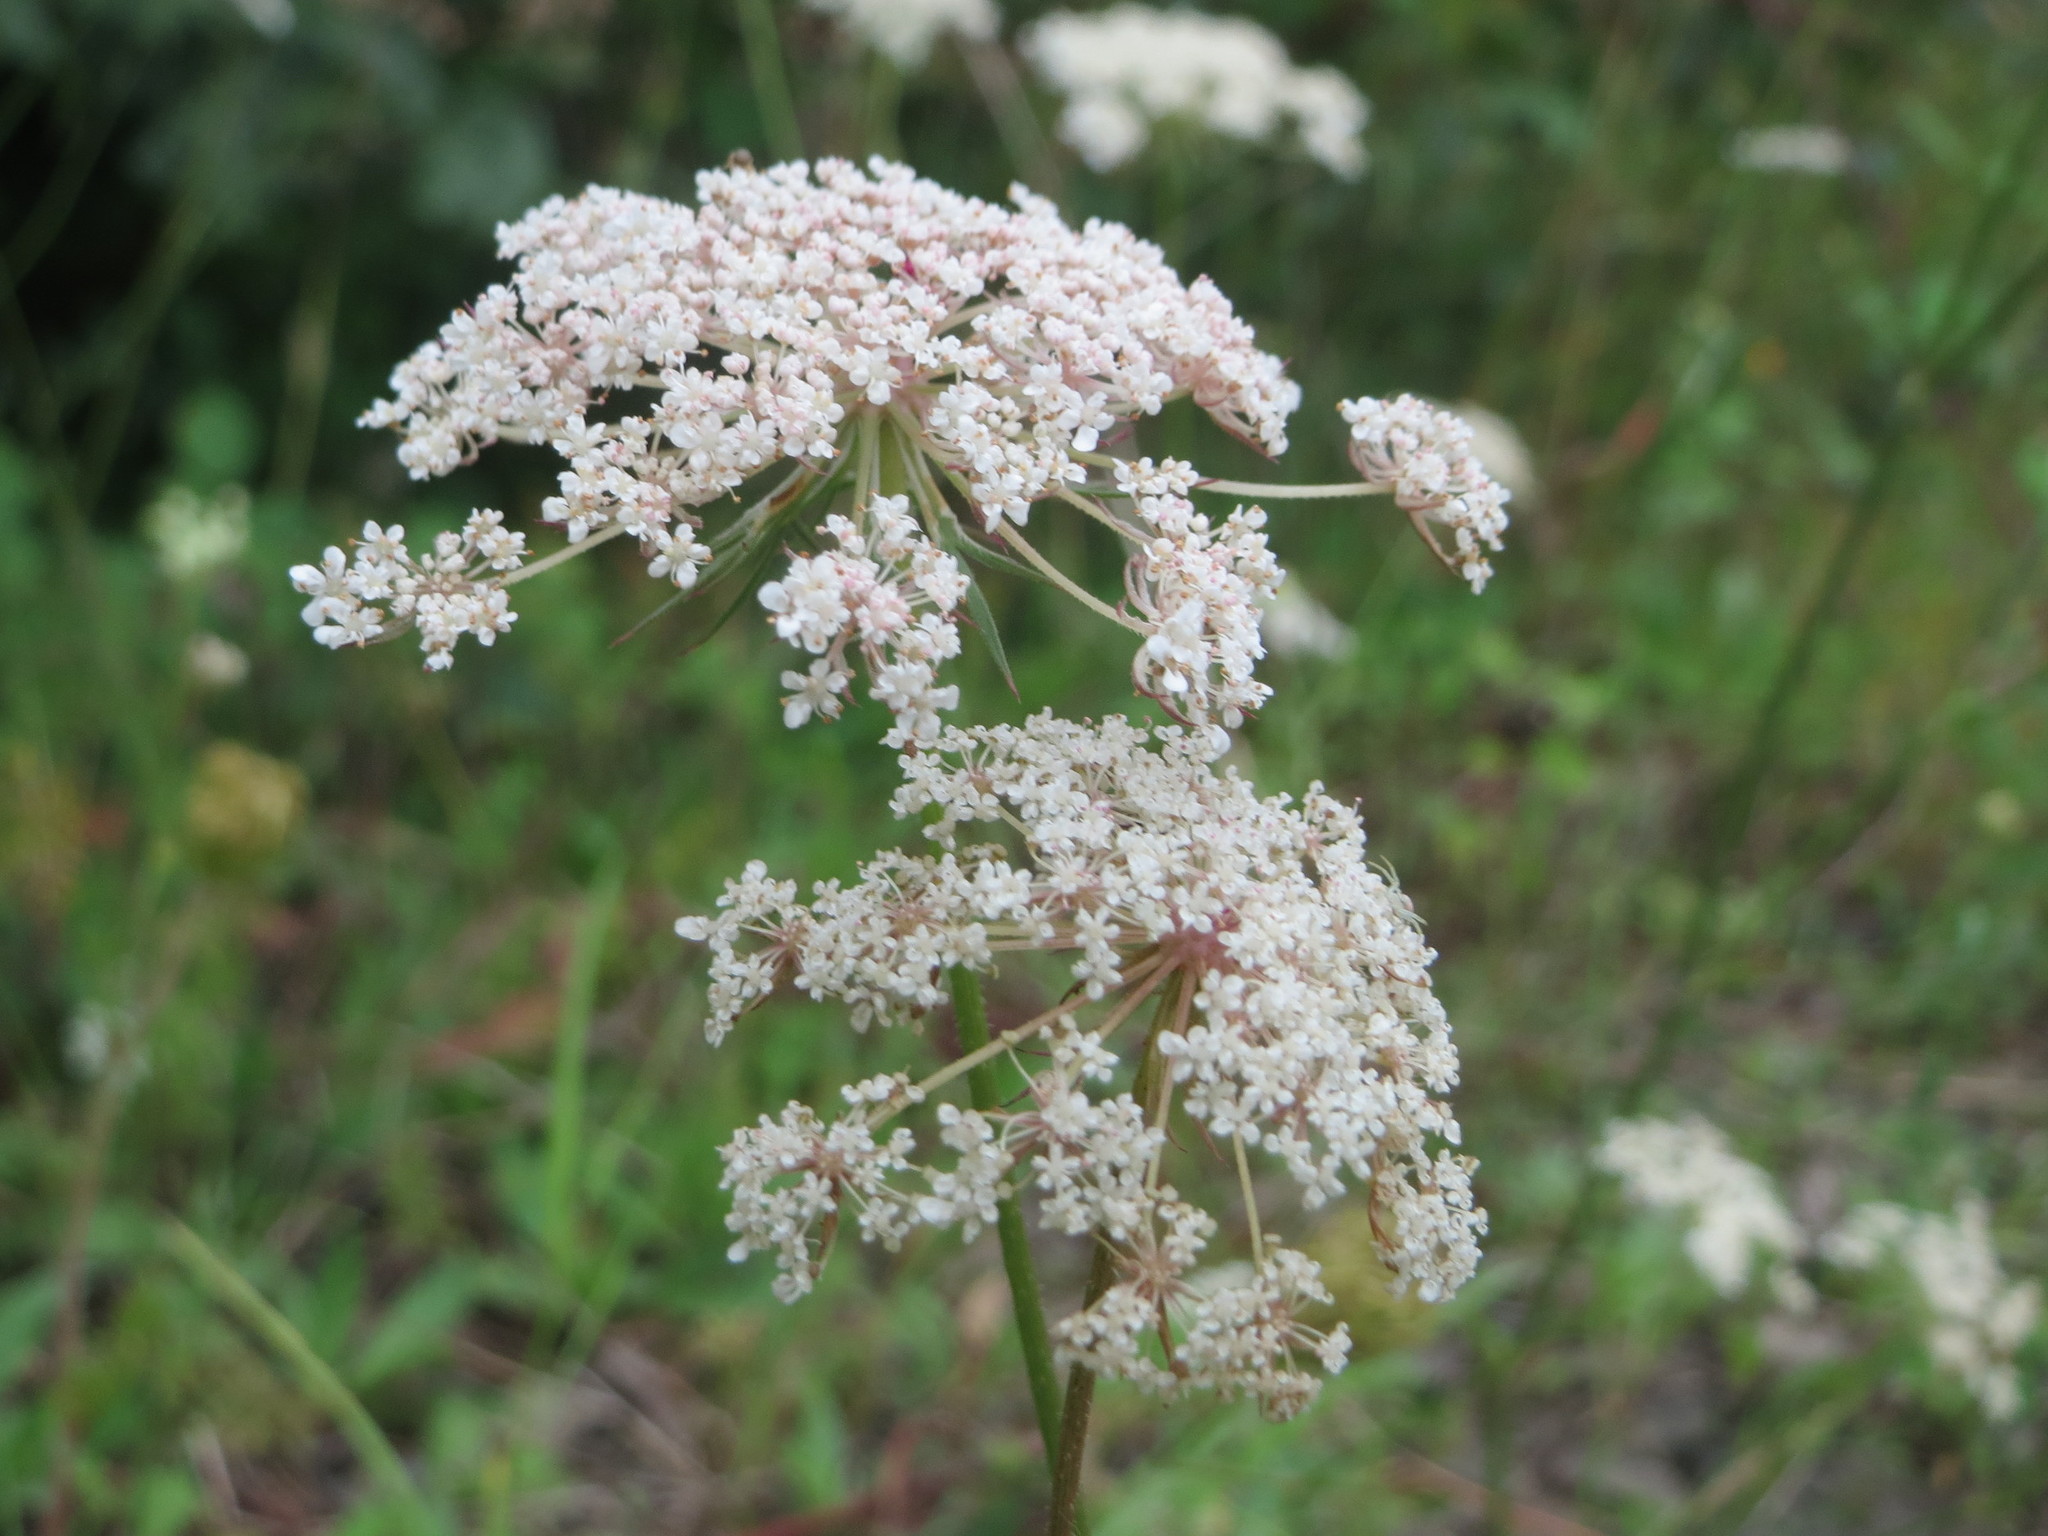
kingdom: Plantae
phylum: Tracheophyta
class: Magnoliopsida
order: Apiales
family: Apiaceae
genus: Daucus
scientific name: Daucus carota
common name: Wild carrot
